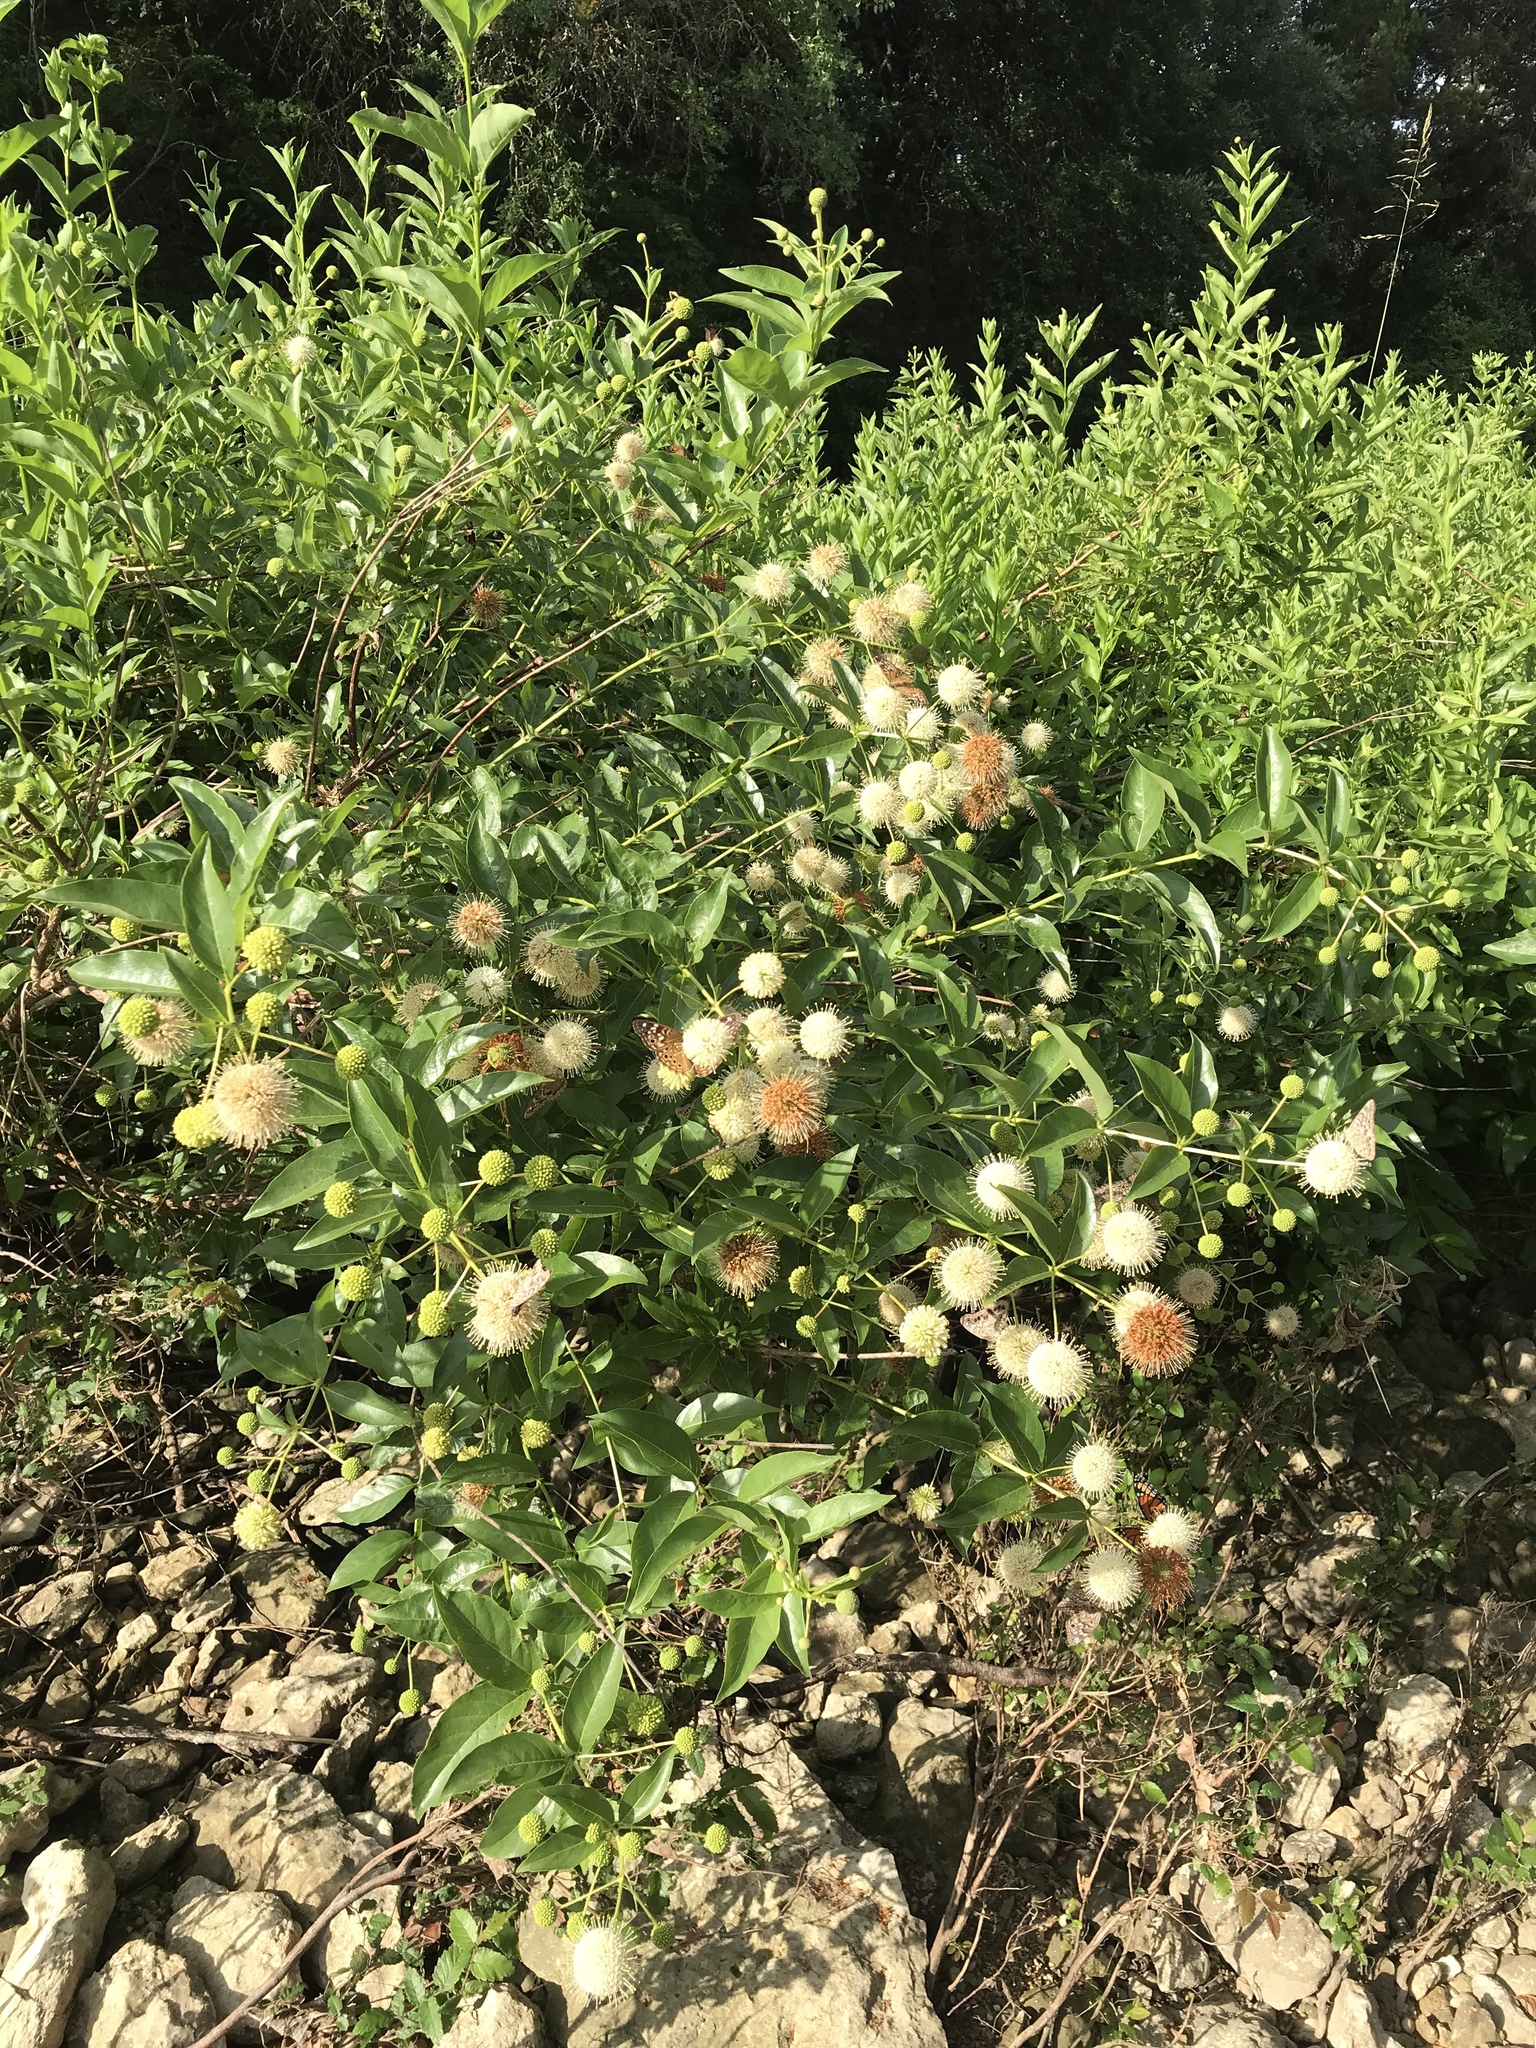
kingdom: Plantae
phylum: Tracheophyta
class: Magnoliopsida
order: Gentianales
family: Rubiaceae
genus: Cephalanthus
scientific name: Cephalanthus occidentalis
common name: Button-willow
